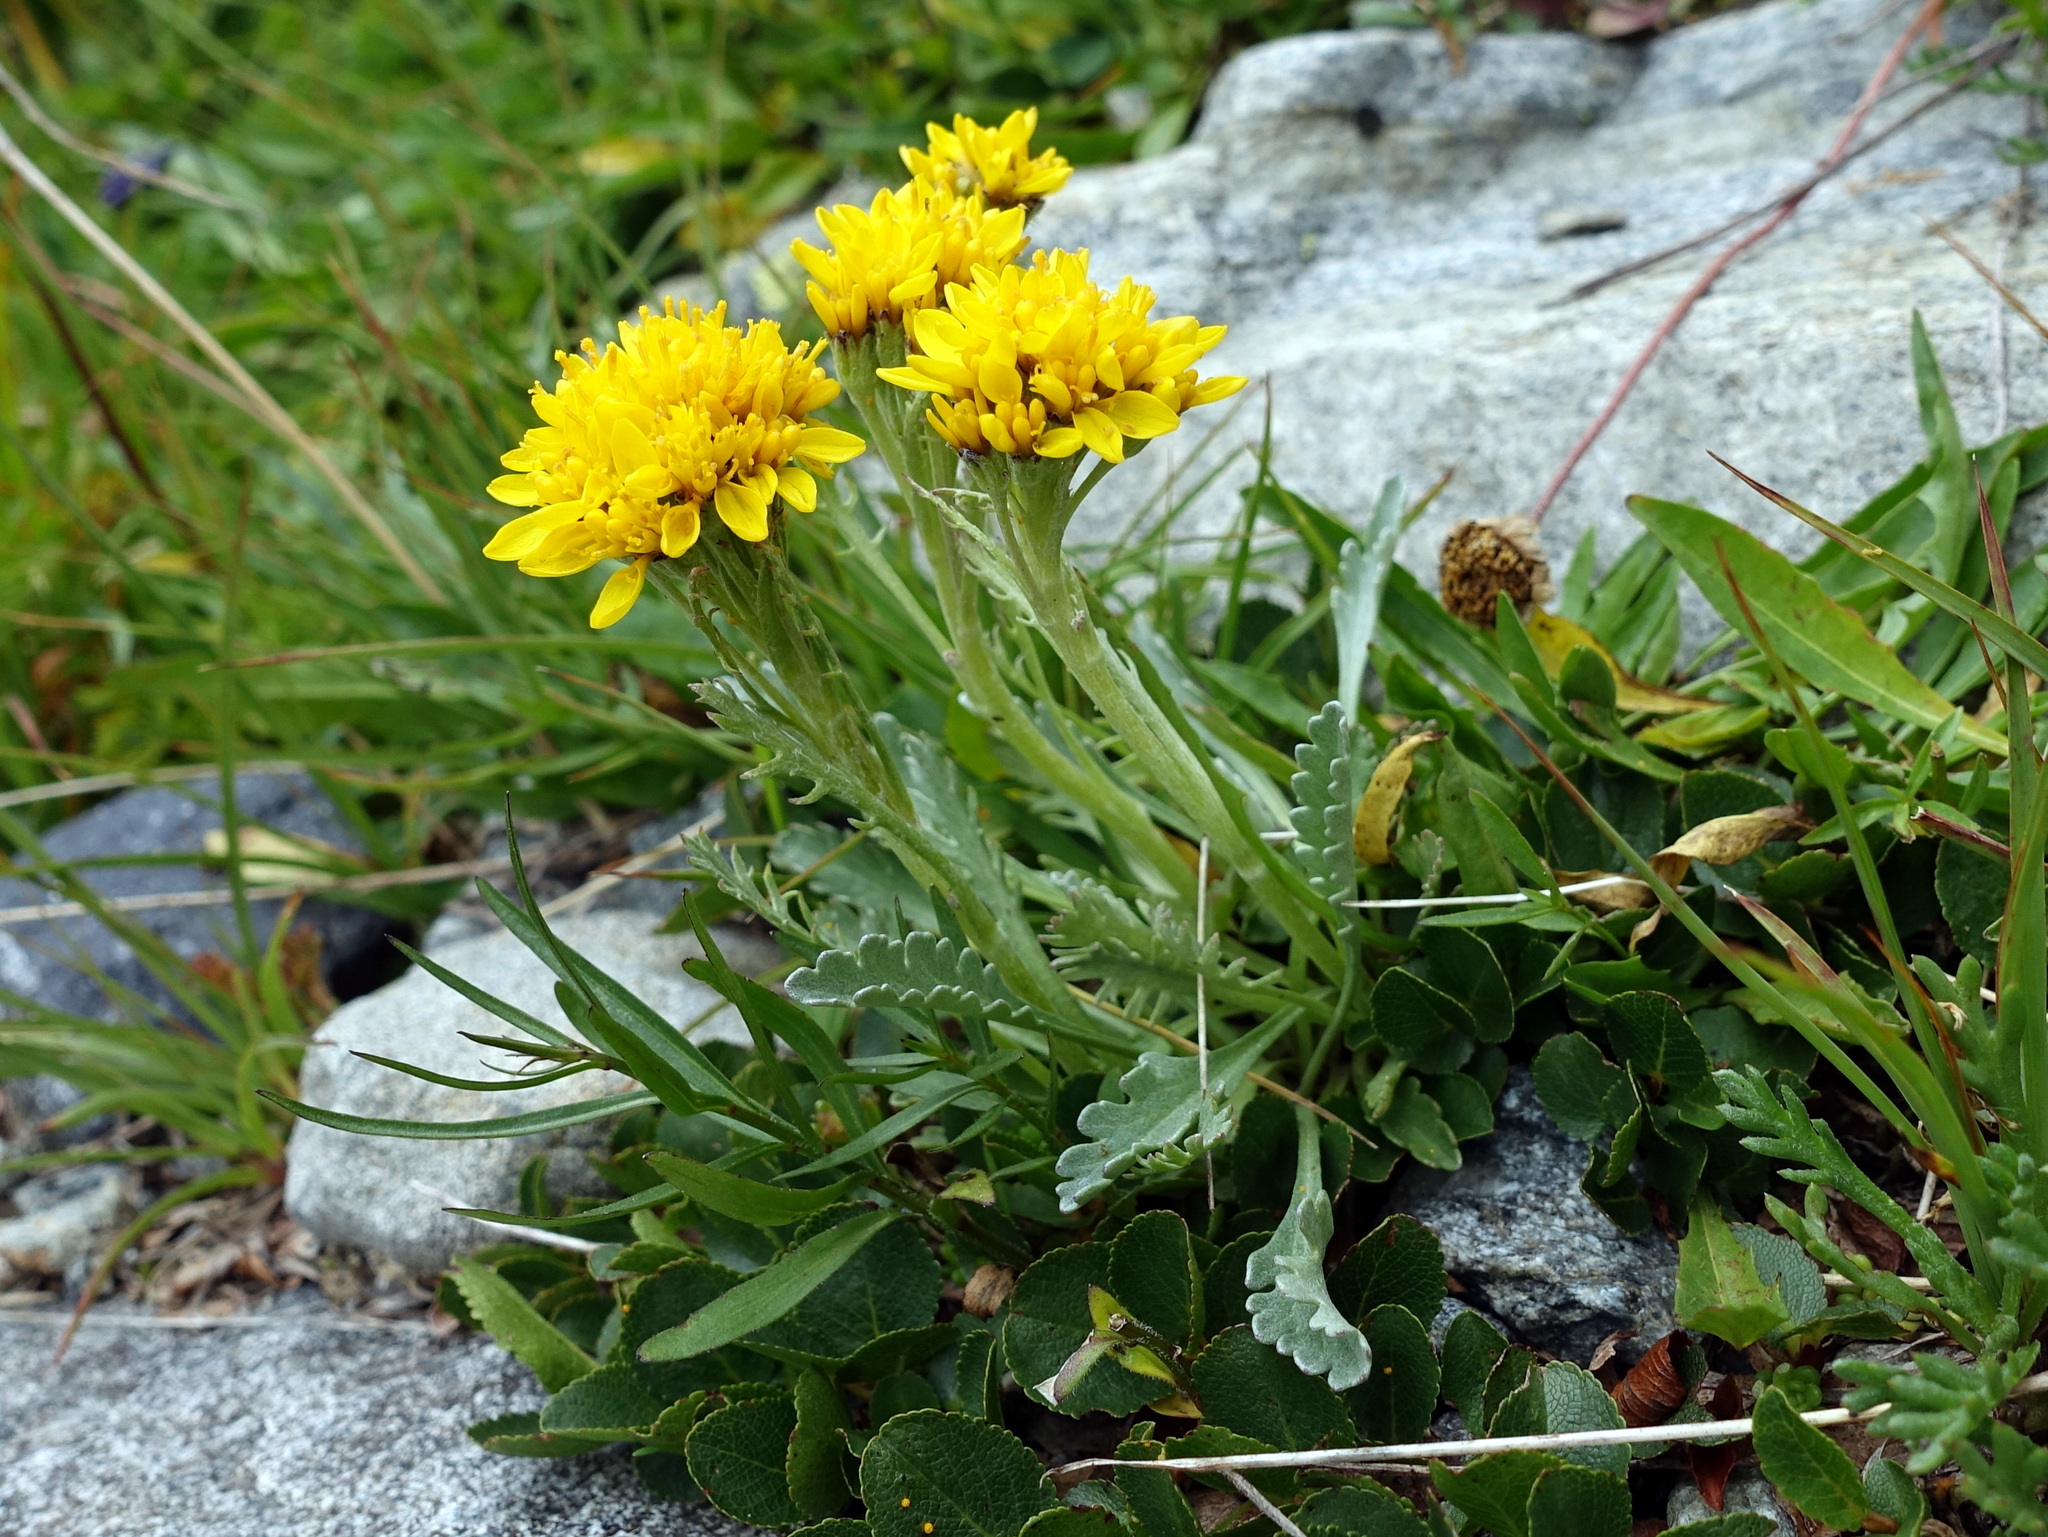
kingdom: Plantae
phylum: Tracheophyta
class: Magnoliopsida
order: Asterales
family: Asteraceae
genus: Jacobaea
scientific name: Jacobaea carniolica
